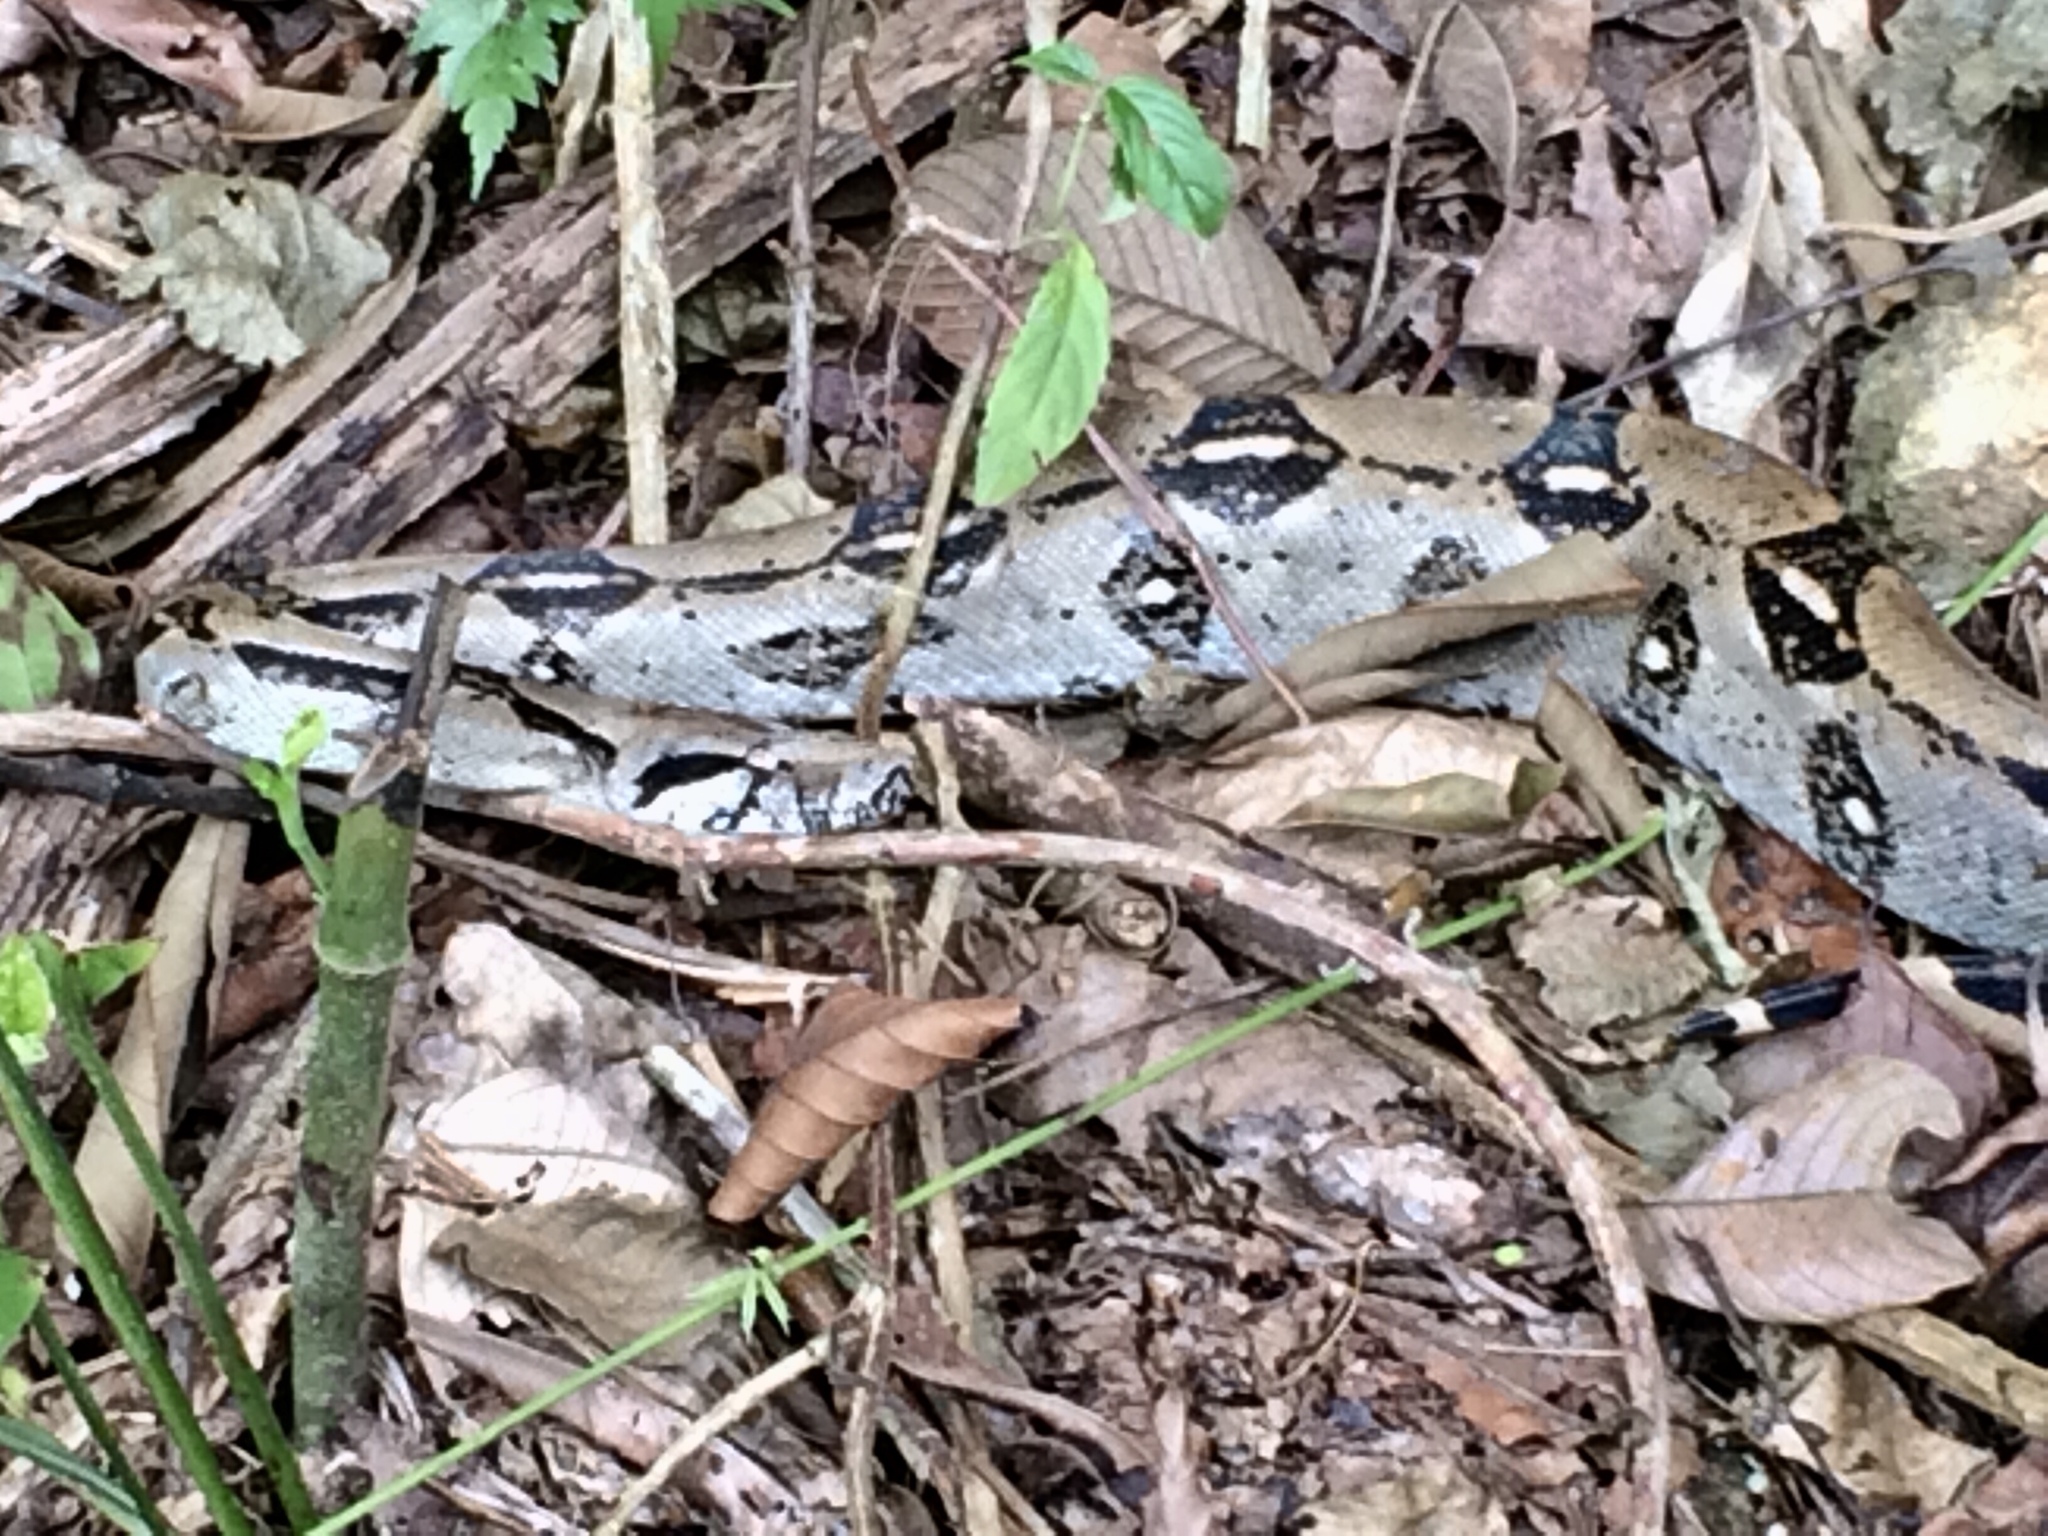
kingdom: Animalia
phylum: Chordata
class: Squamata
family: Boidae
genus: Boa
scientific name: Boa imperator
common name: Central american boa
